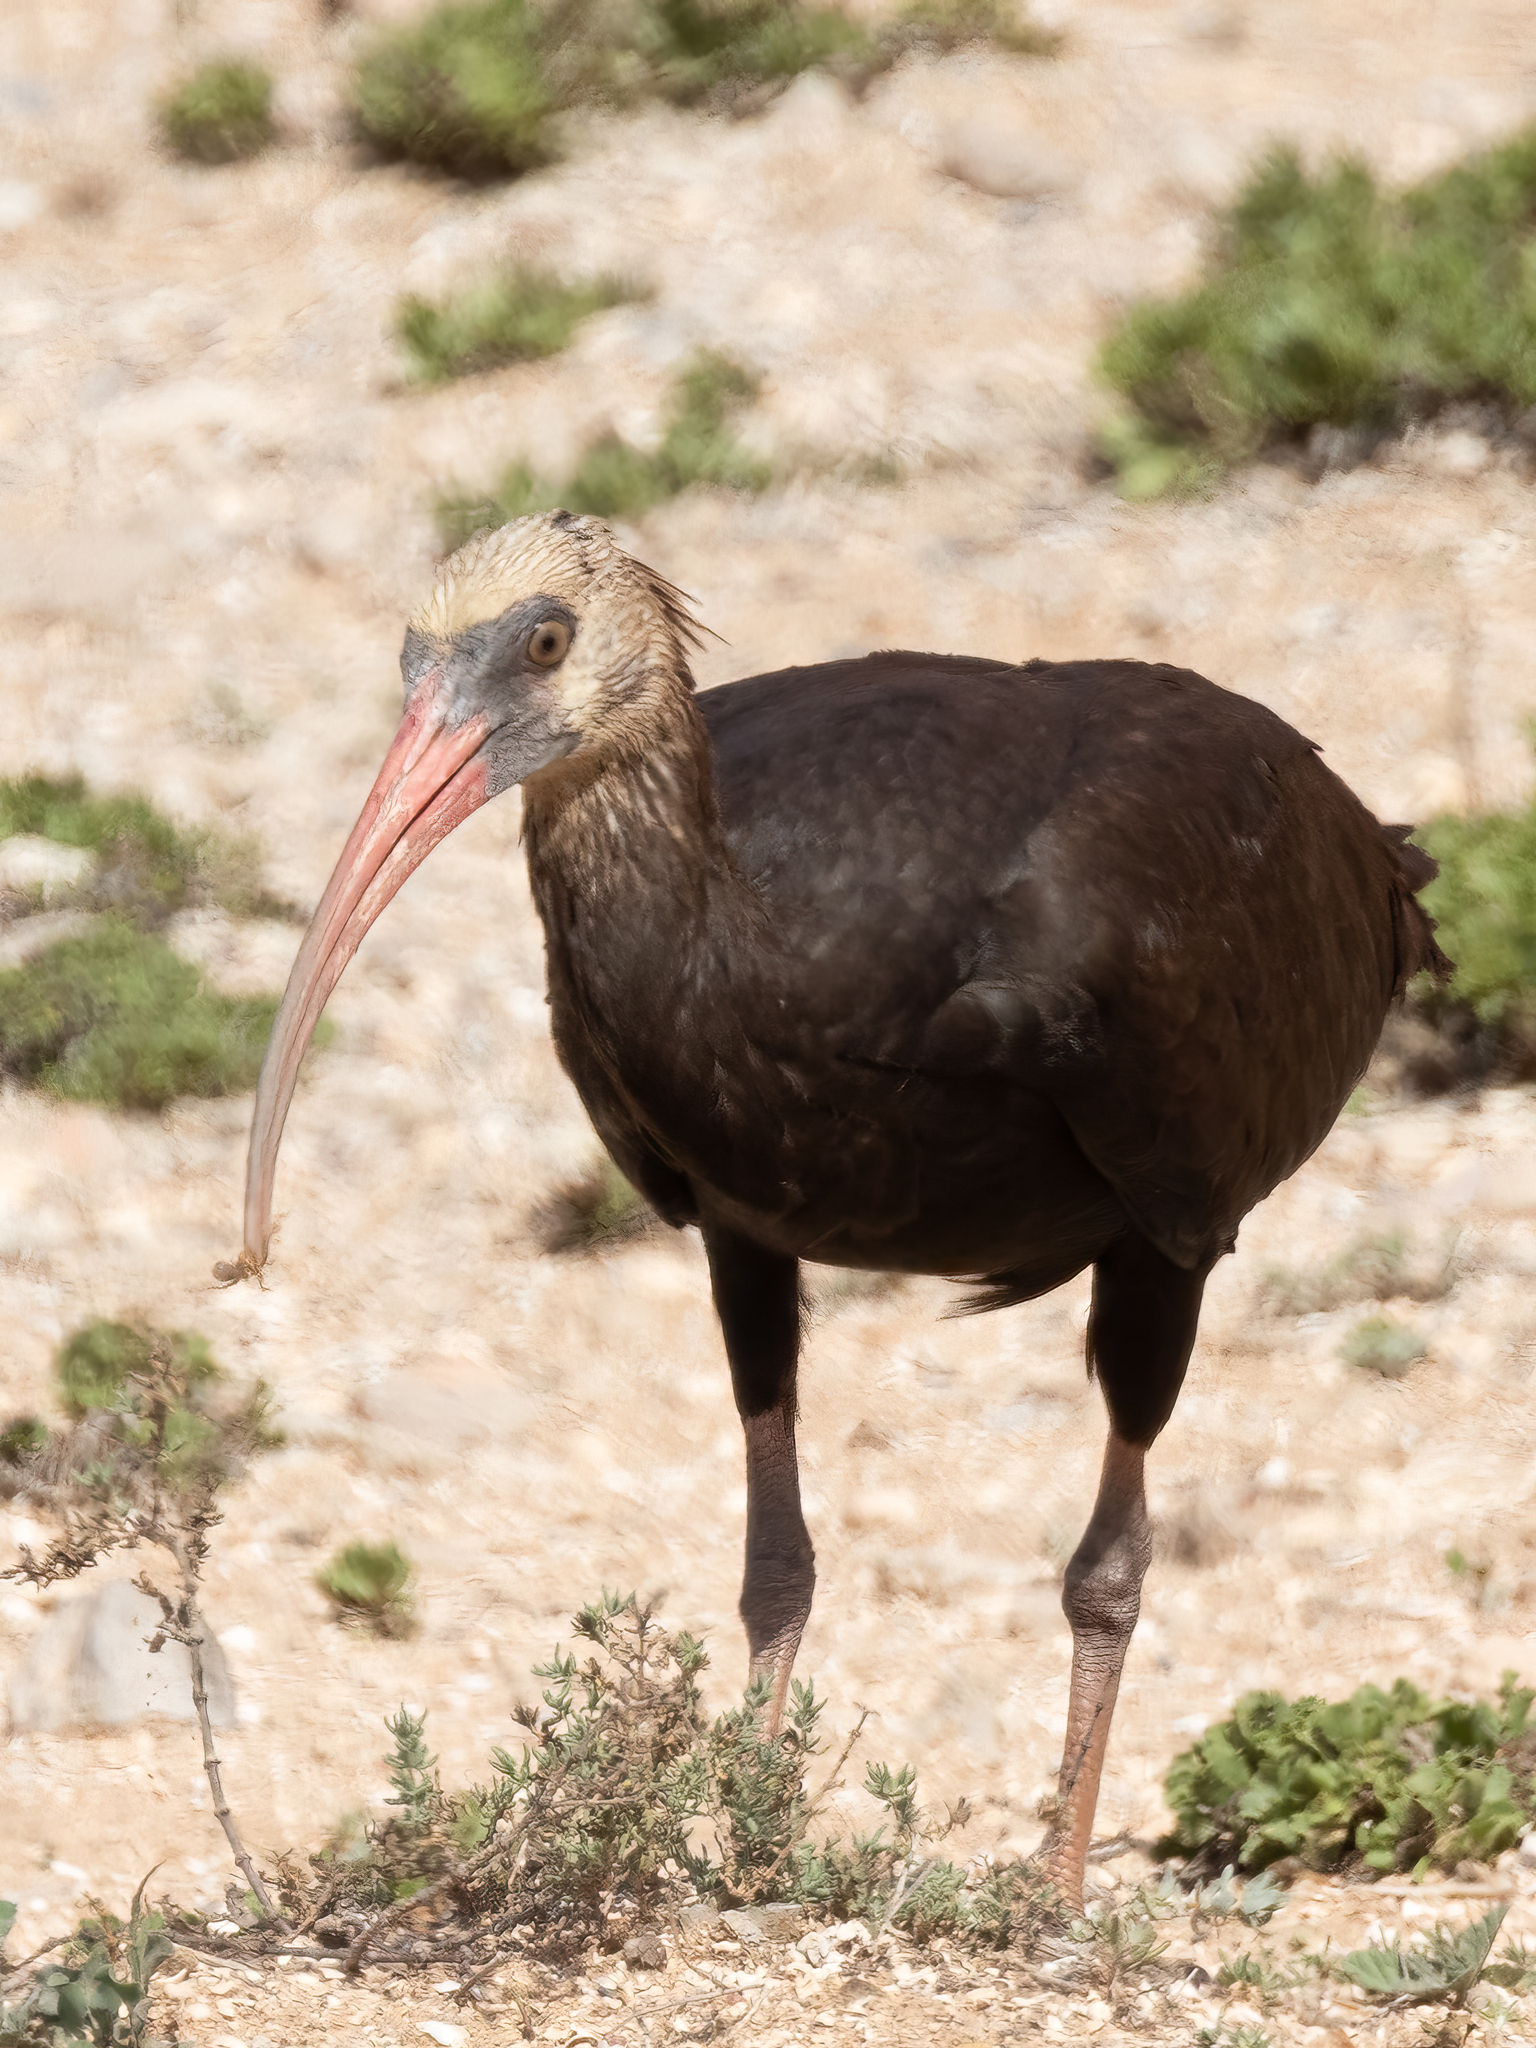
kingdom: Animalia
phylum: Chordata
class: Aves
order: Pelecaniformes
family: Threskiornithidae
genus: Geronticus
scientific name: Geronticus eremita
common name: Northern bald ibis
